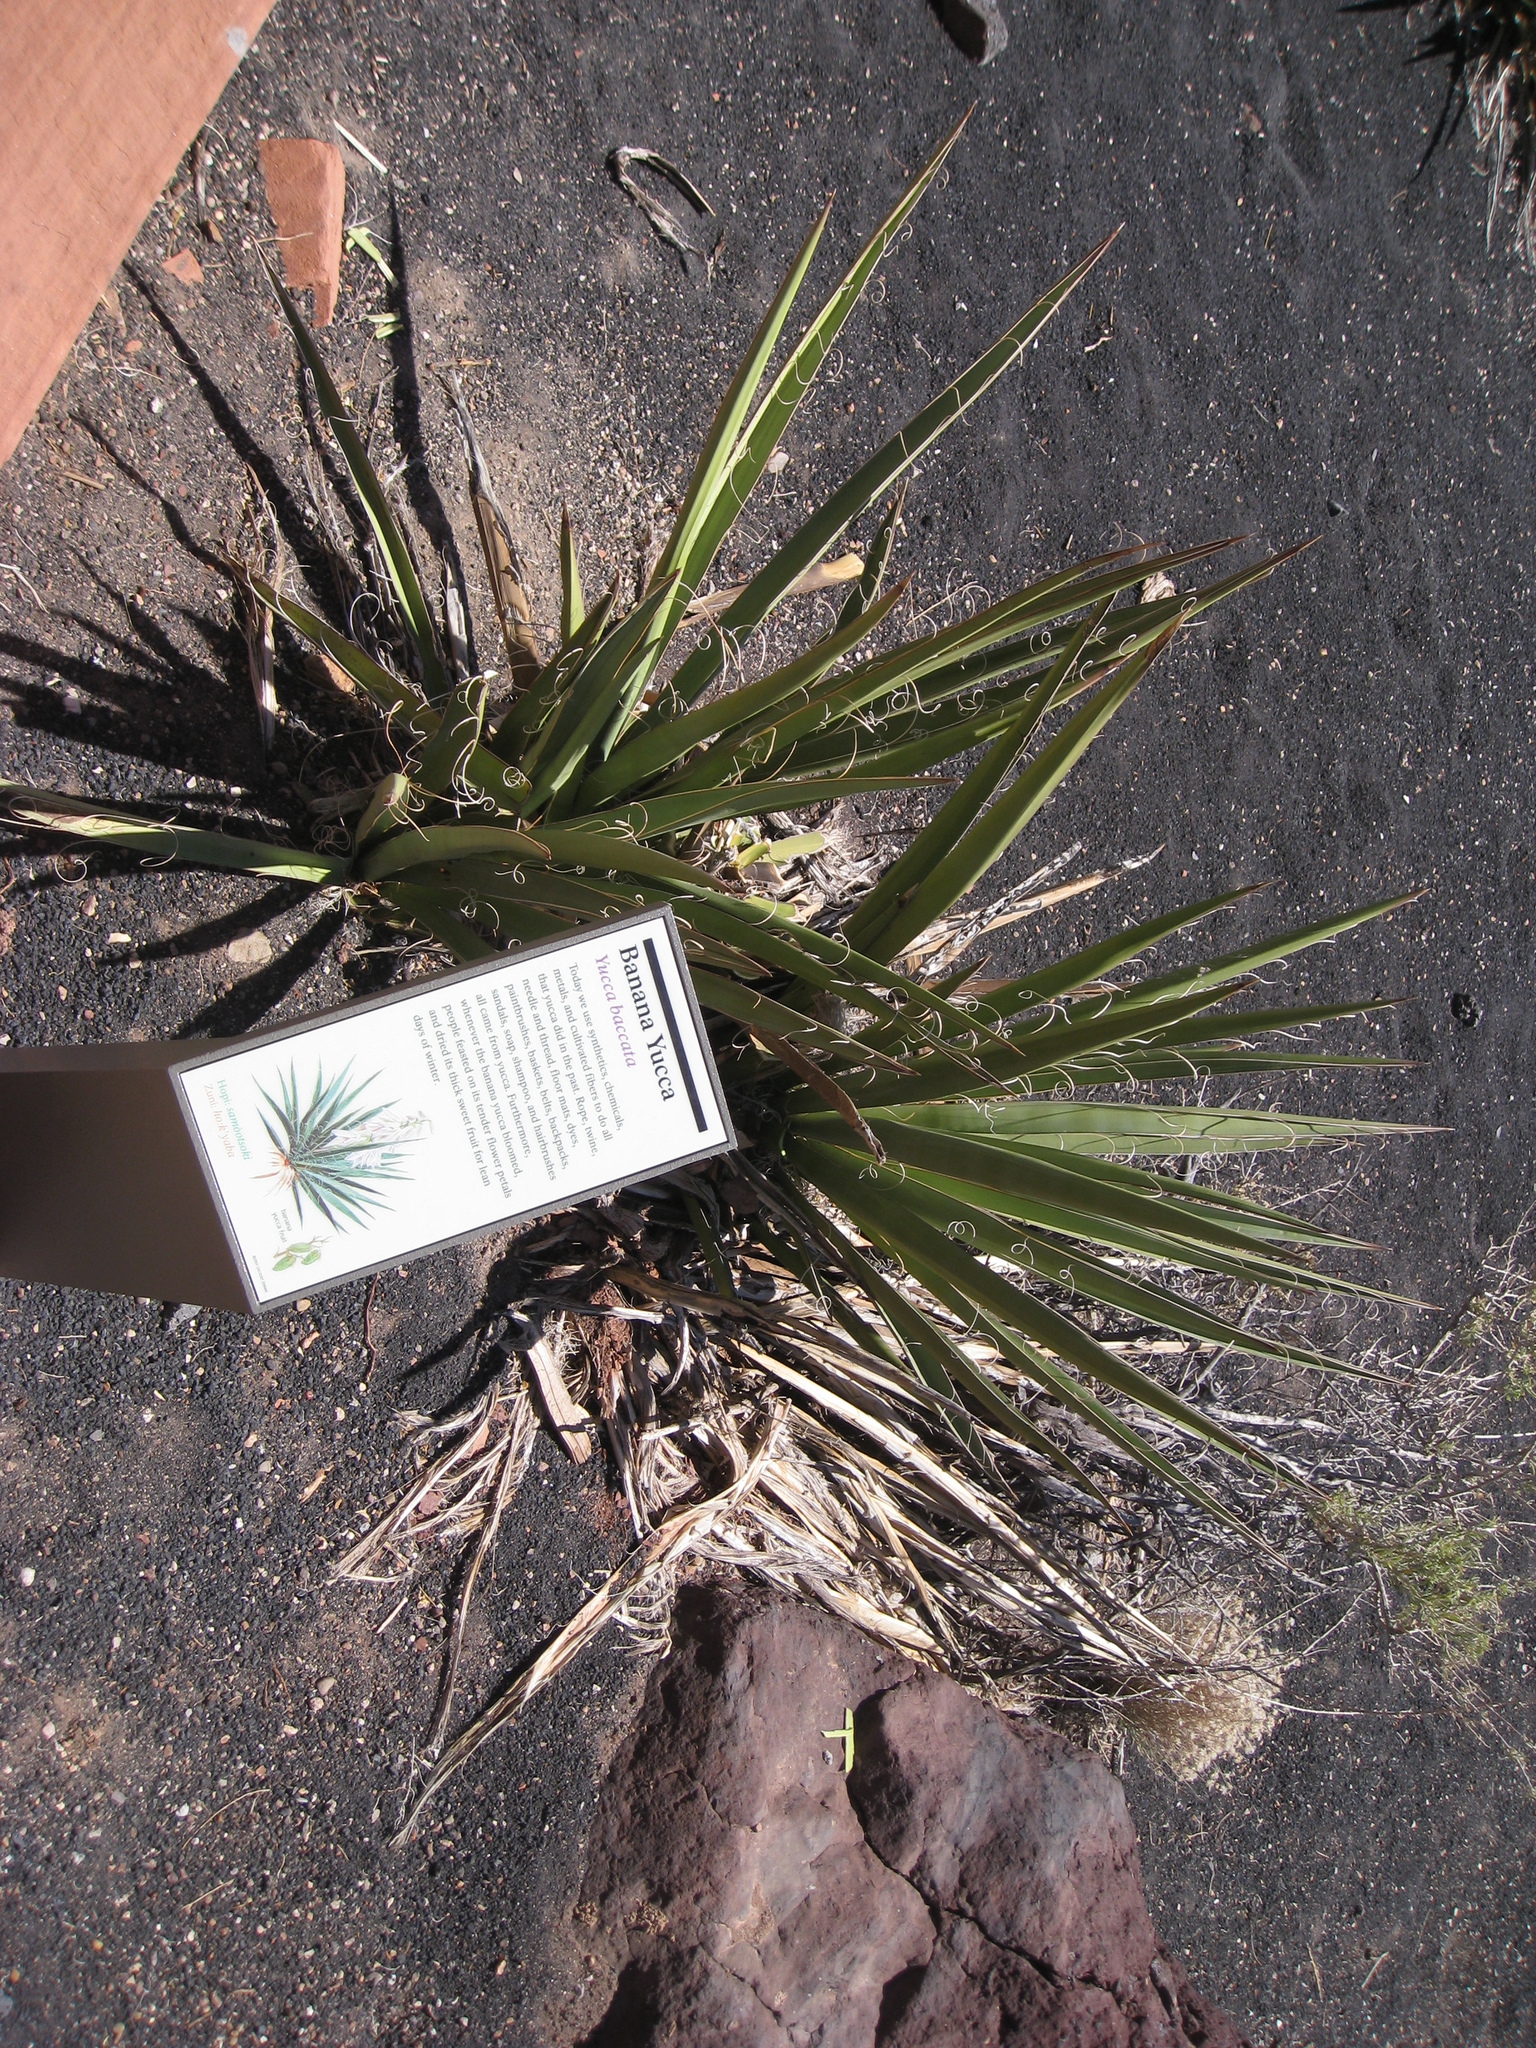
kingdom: Plantae
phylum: Tracheophyta
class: Liliopsida
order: Asparagales
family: Asparagaceae
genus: Yucca
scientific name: Yucca baccata
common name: Banana yucca
